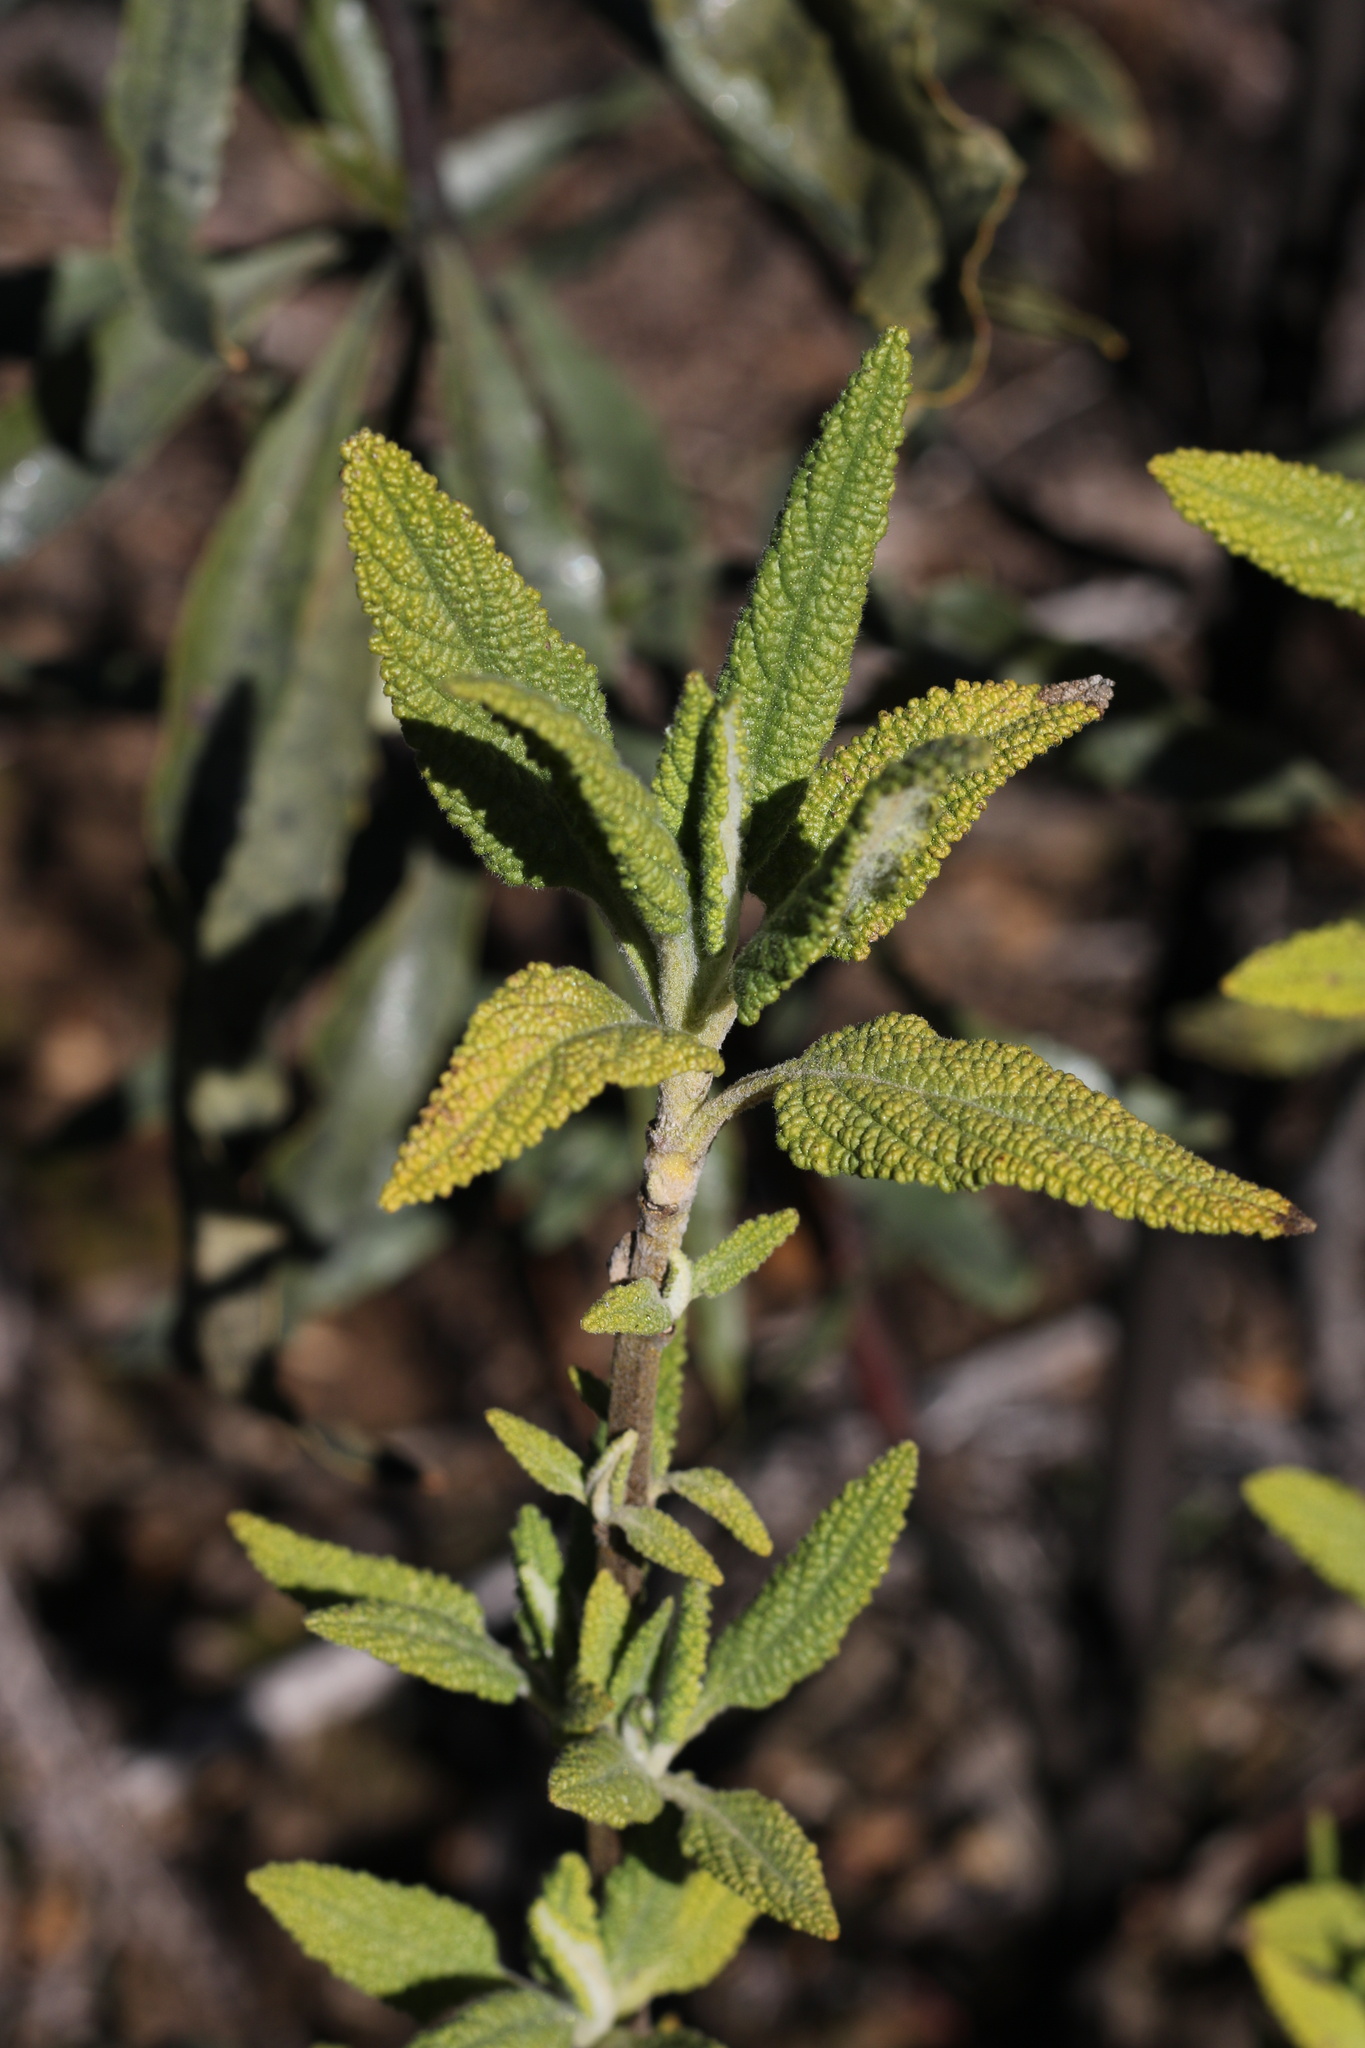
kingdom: Plantae
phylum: Tracheophyta
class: Magnoliopsida
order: Lamiales
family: Lamiaceae
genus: Lepechinia
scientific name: Lepechinia calycina
